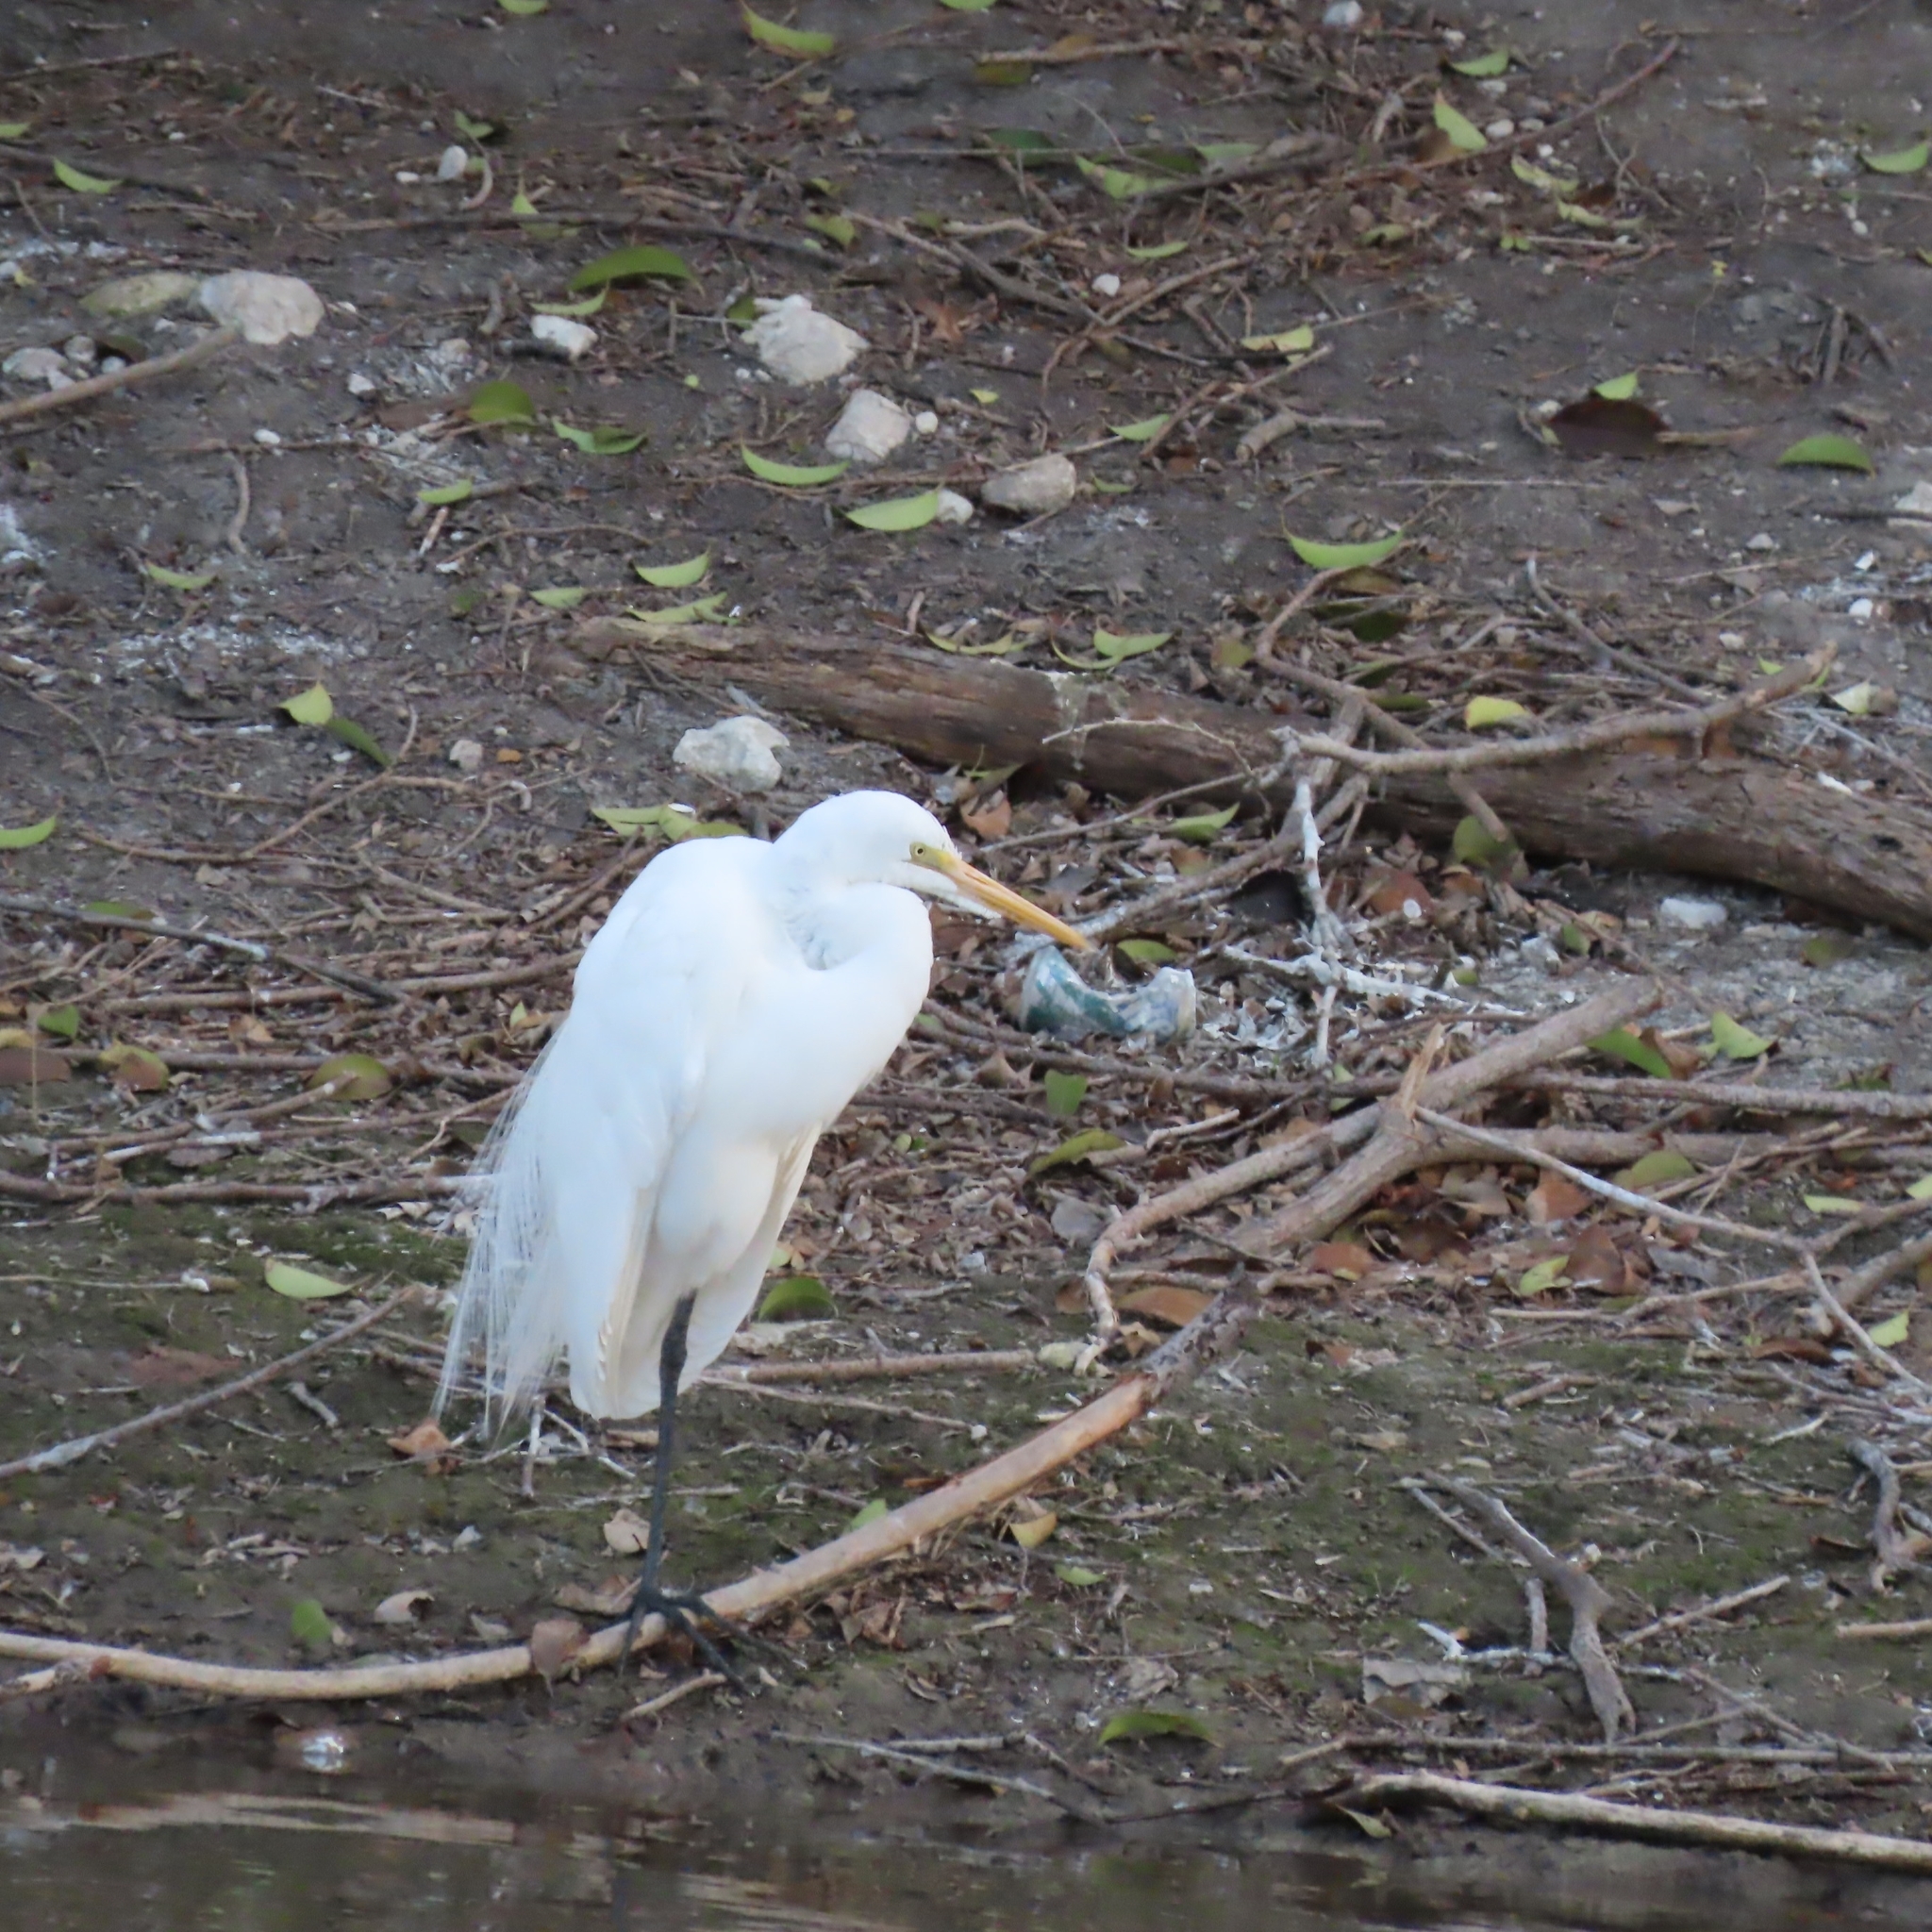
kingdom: Animalia
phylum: Chordata
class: Aves
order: Pelecaniformes
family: Ardeidae
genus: Ardea
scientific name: Ardea alba
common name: Great egret
